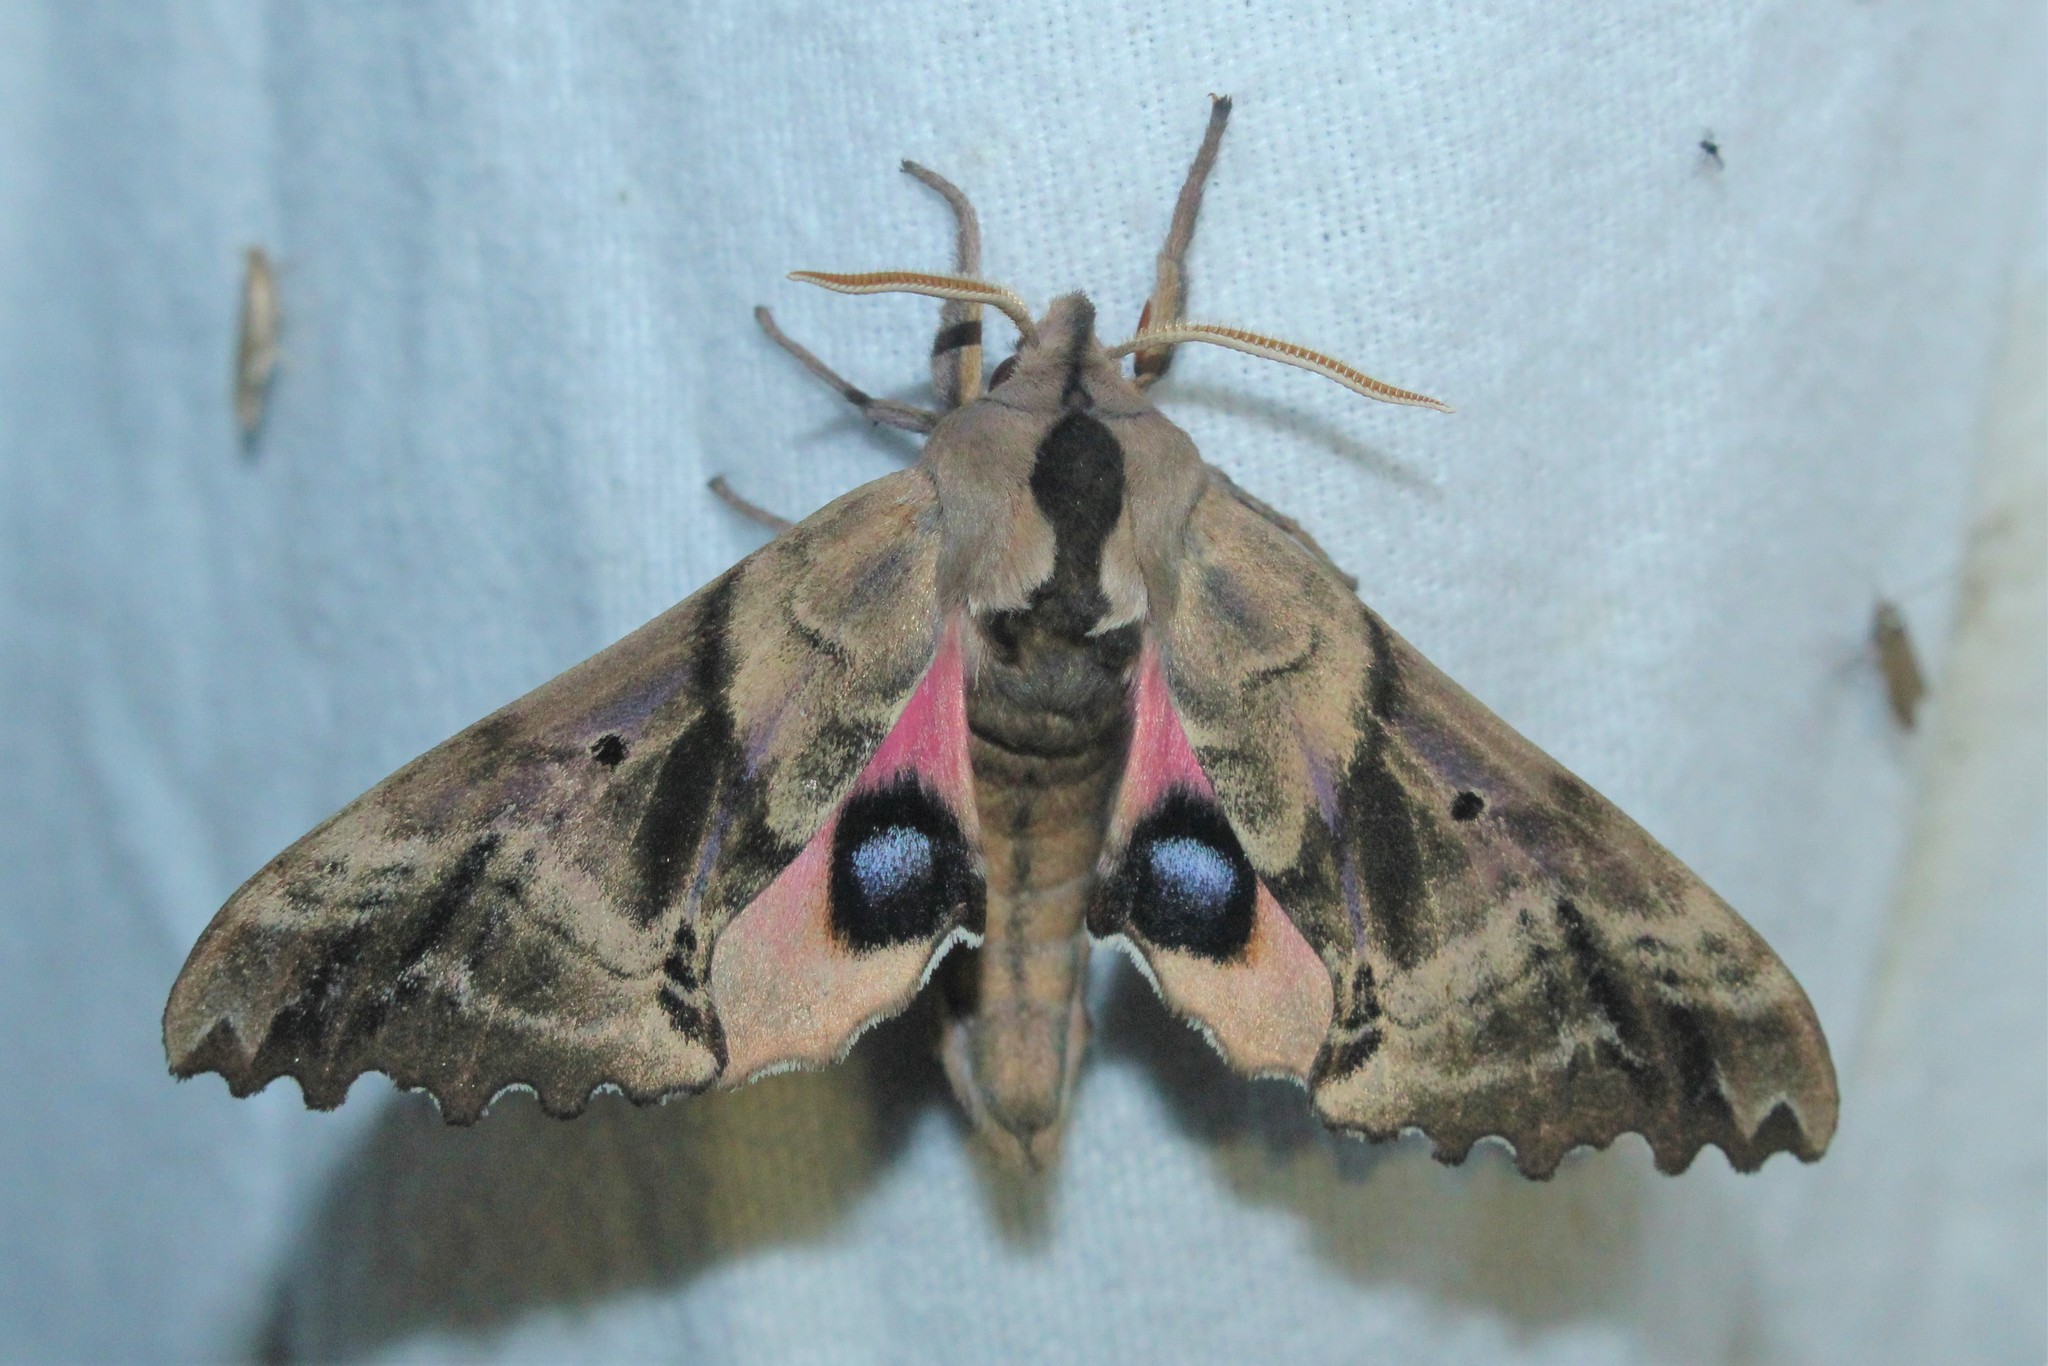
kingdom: Animalia
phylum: Arthropoda
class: Insecta
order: Lepidoptera
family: Sphingidae
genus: Paonias
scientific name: Paonias excaecata
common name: Blind-eyed sphinx
